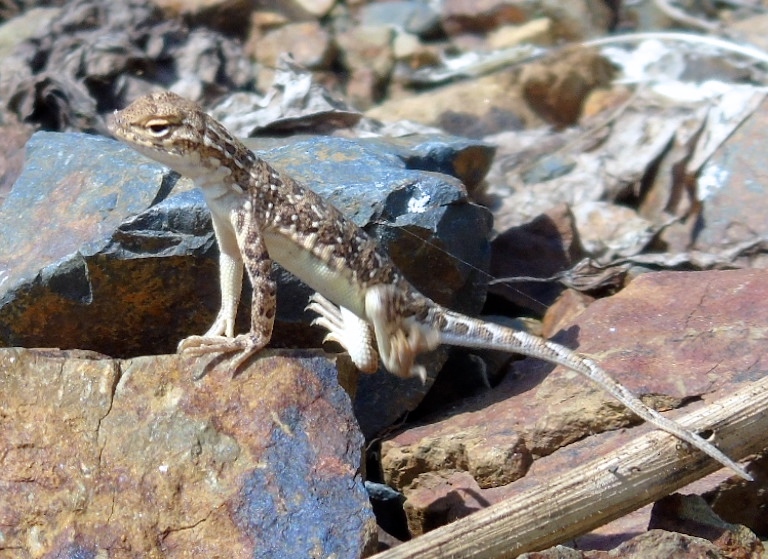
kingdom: Animalia
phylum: Chordata
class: Squamata
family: Phrynosomatidae
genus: Holbrookia
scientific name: Holbrookia elegans
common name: Elegant earless lizard
